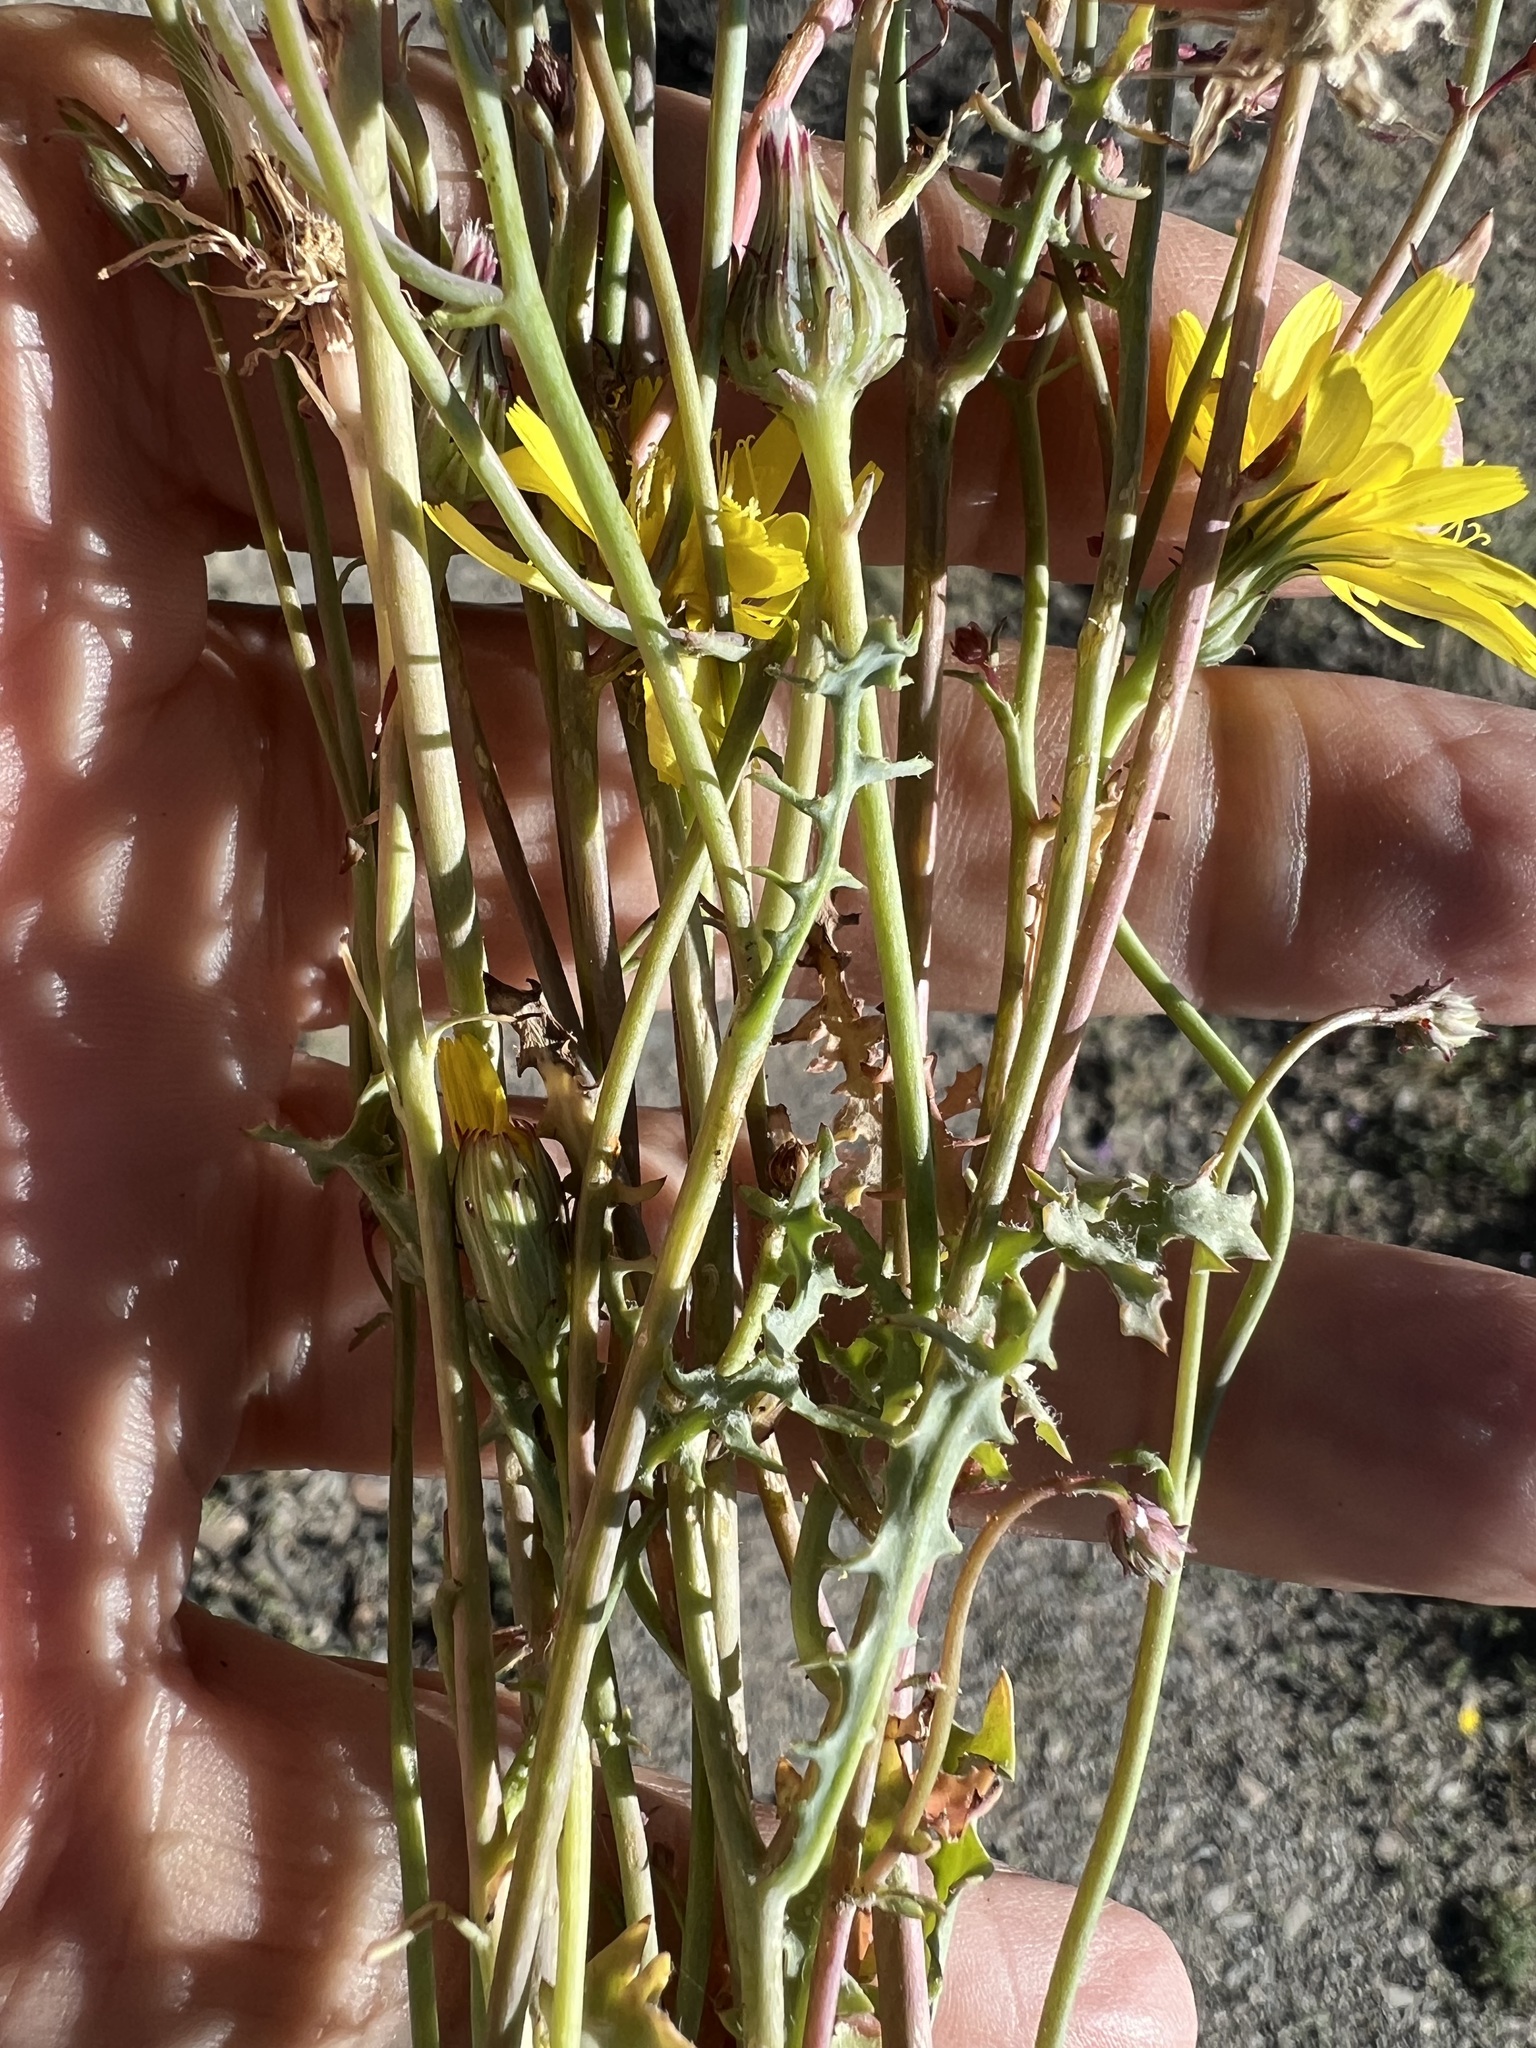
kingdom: Plantae
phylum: Tracheophyta
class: Magnoliopsida
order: Asterales
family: Asteraceae
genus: Malacothrix
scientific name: Malacothrix torreyi
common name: Torrey's desert-dandelion
